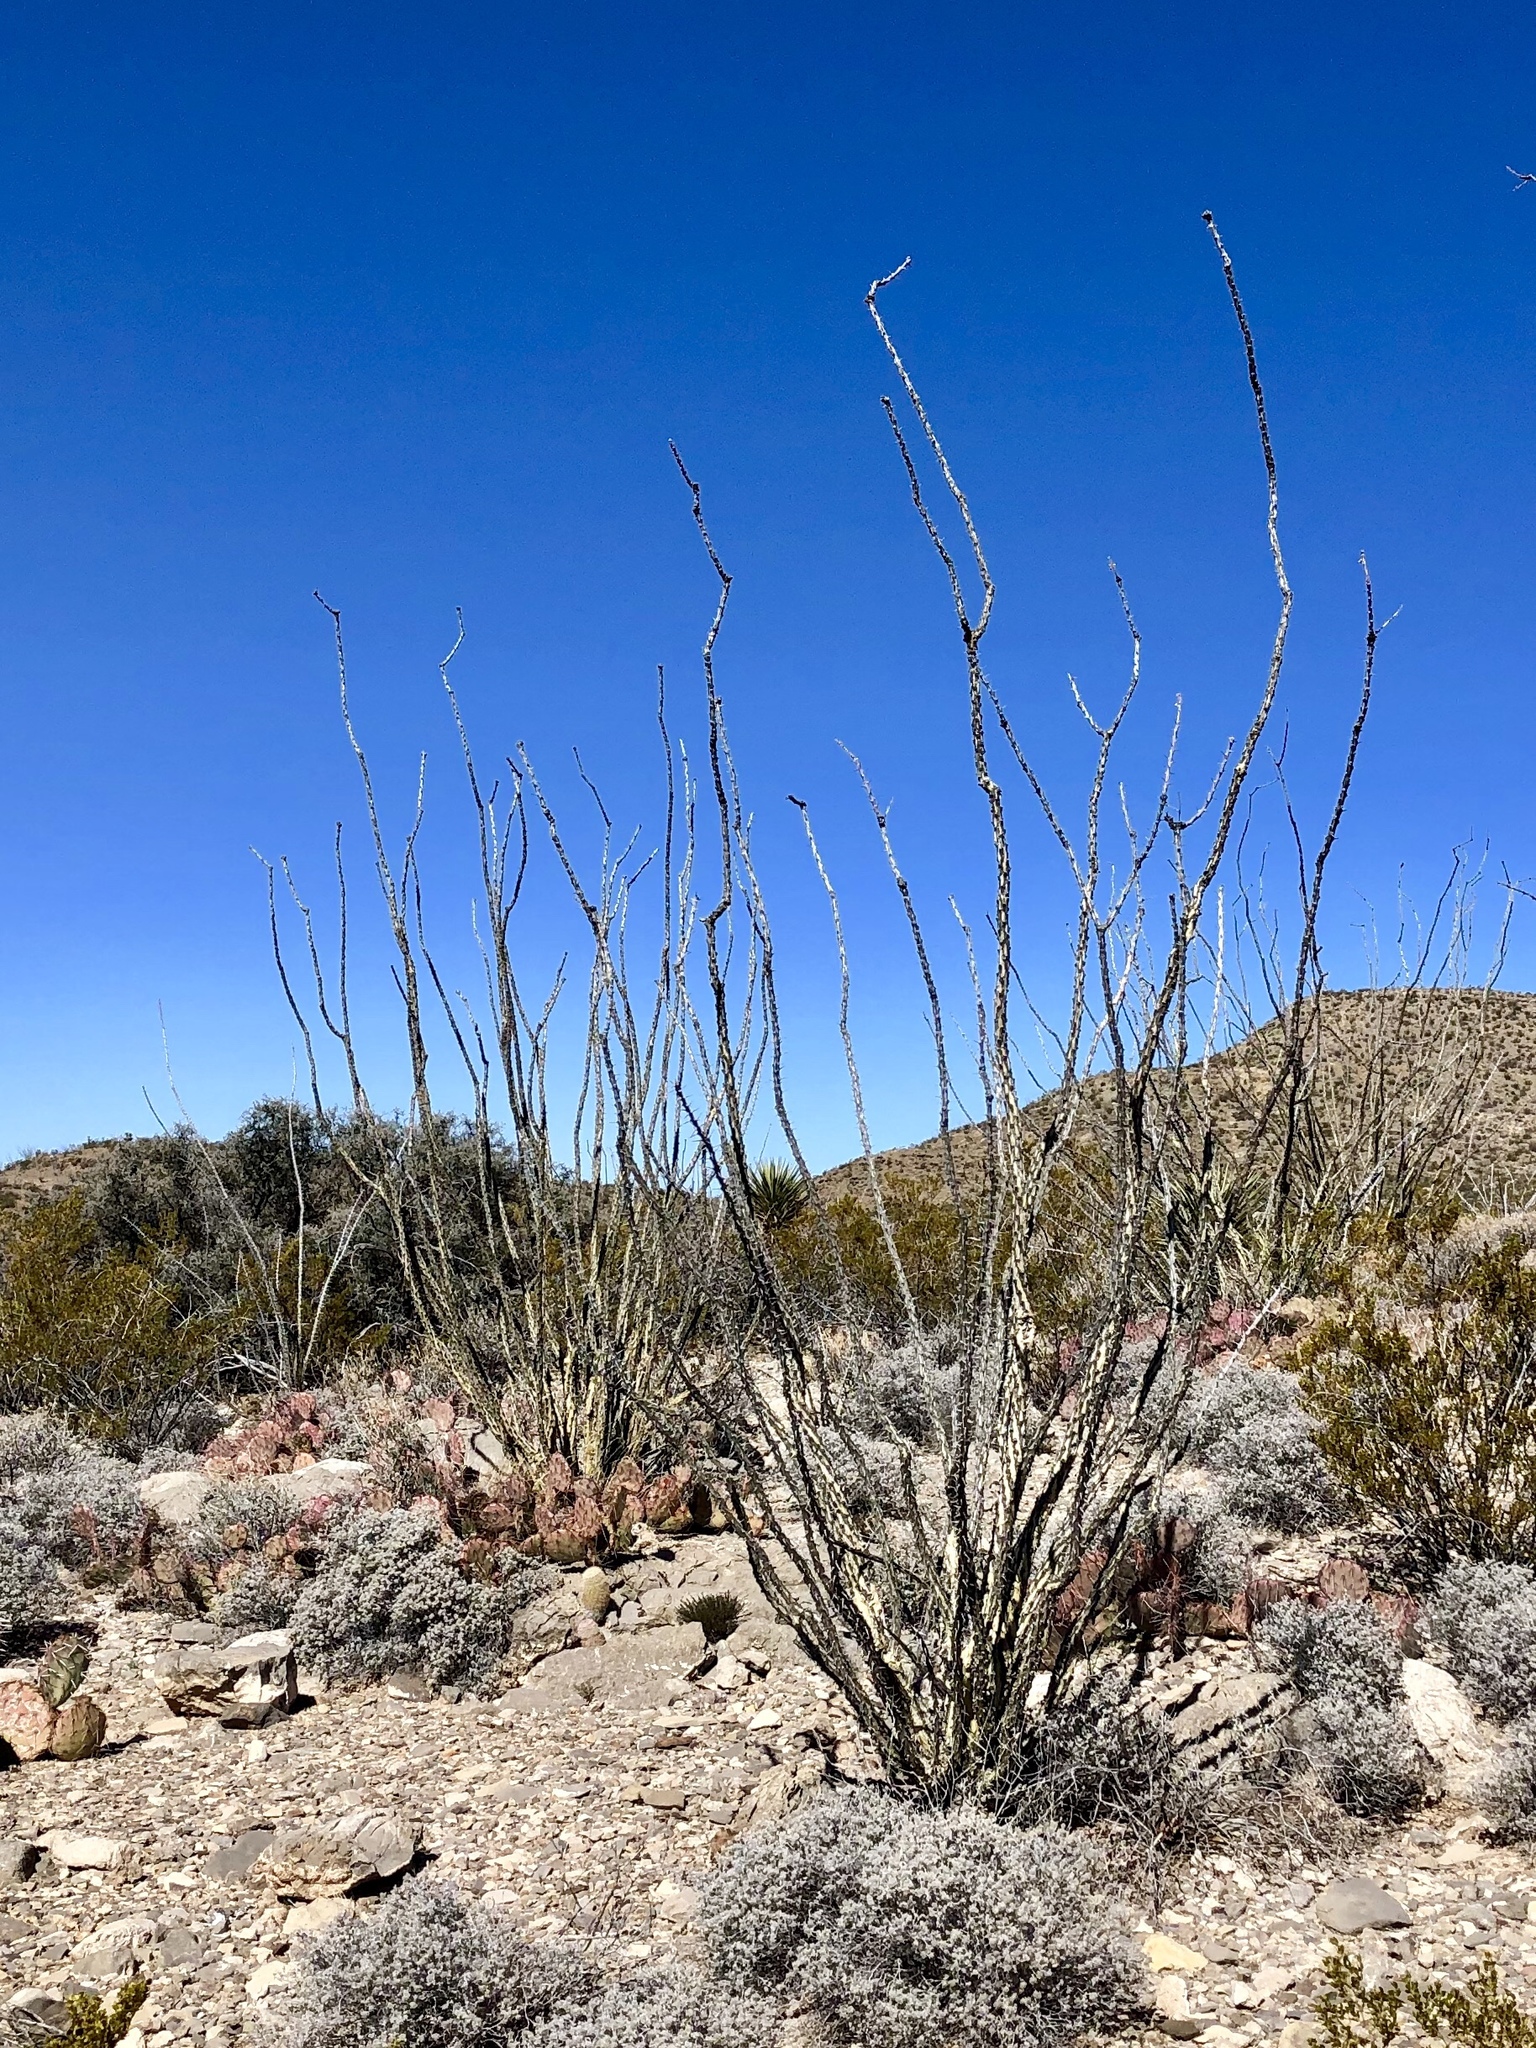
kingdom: Plantae
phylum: Tracheophyta
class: Magnoliopsida
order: Ericales
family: Fouquieriaceae
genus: Fouquieria
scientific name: Fouquieria splendens
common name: Vine-cactus
